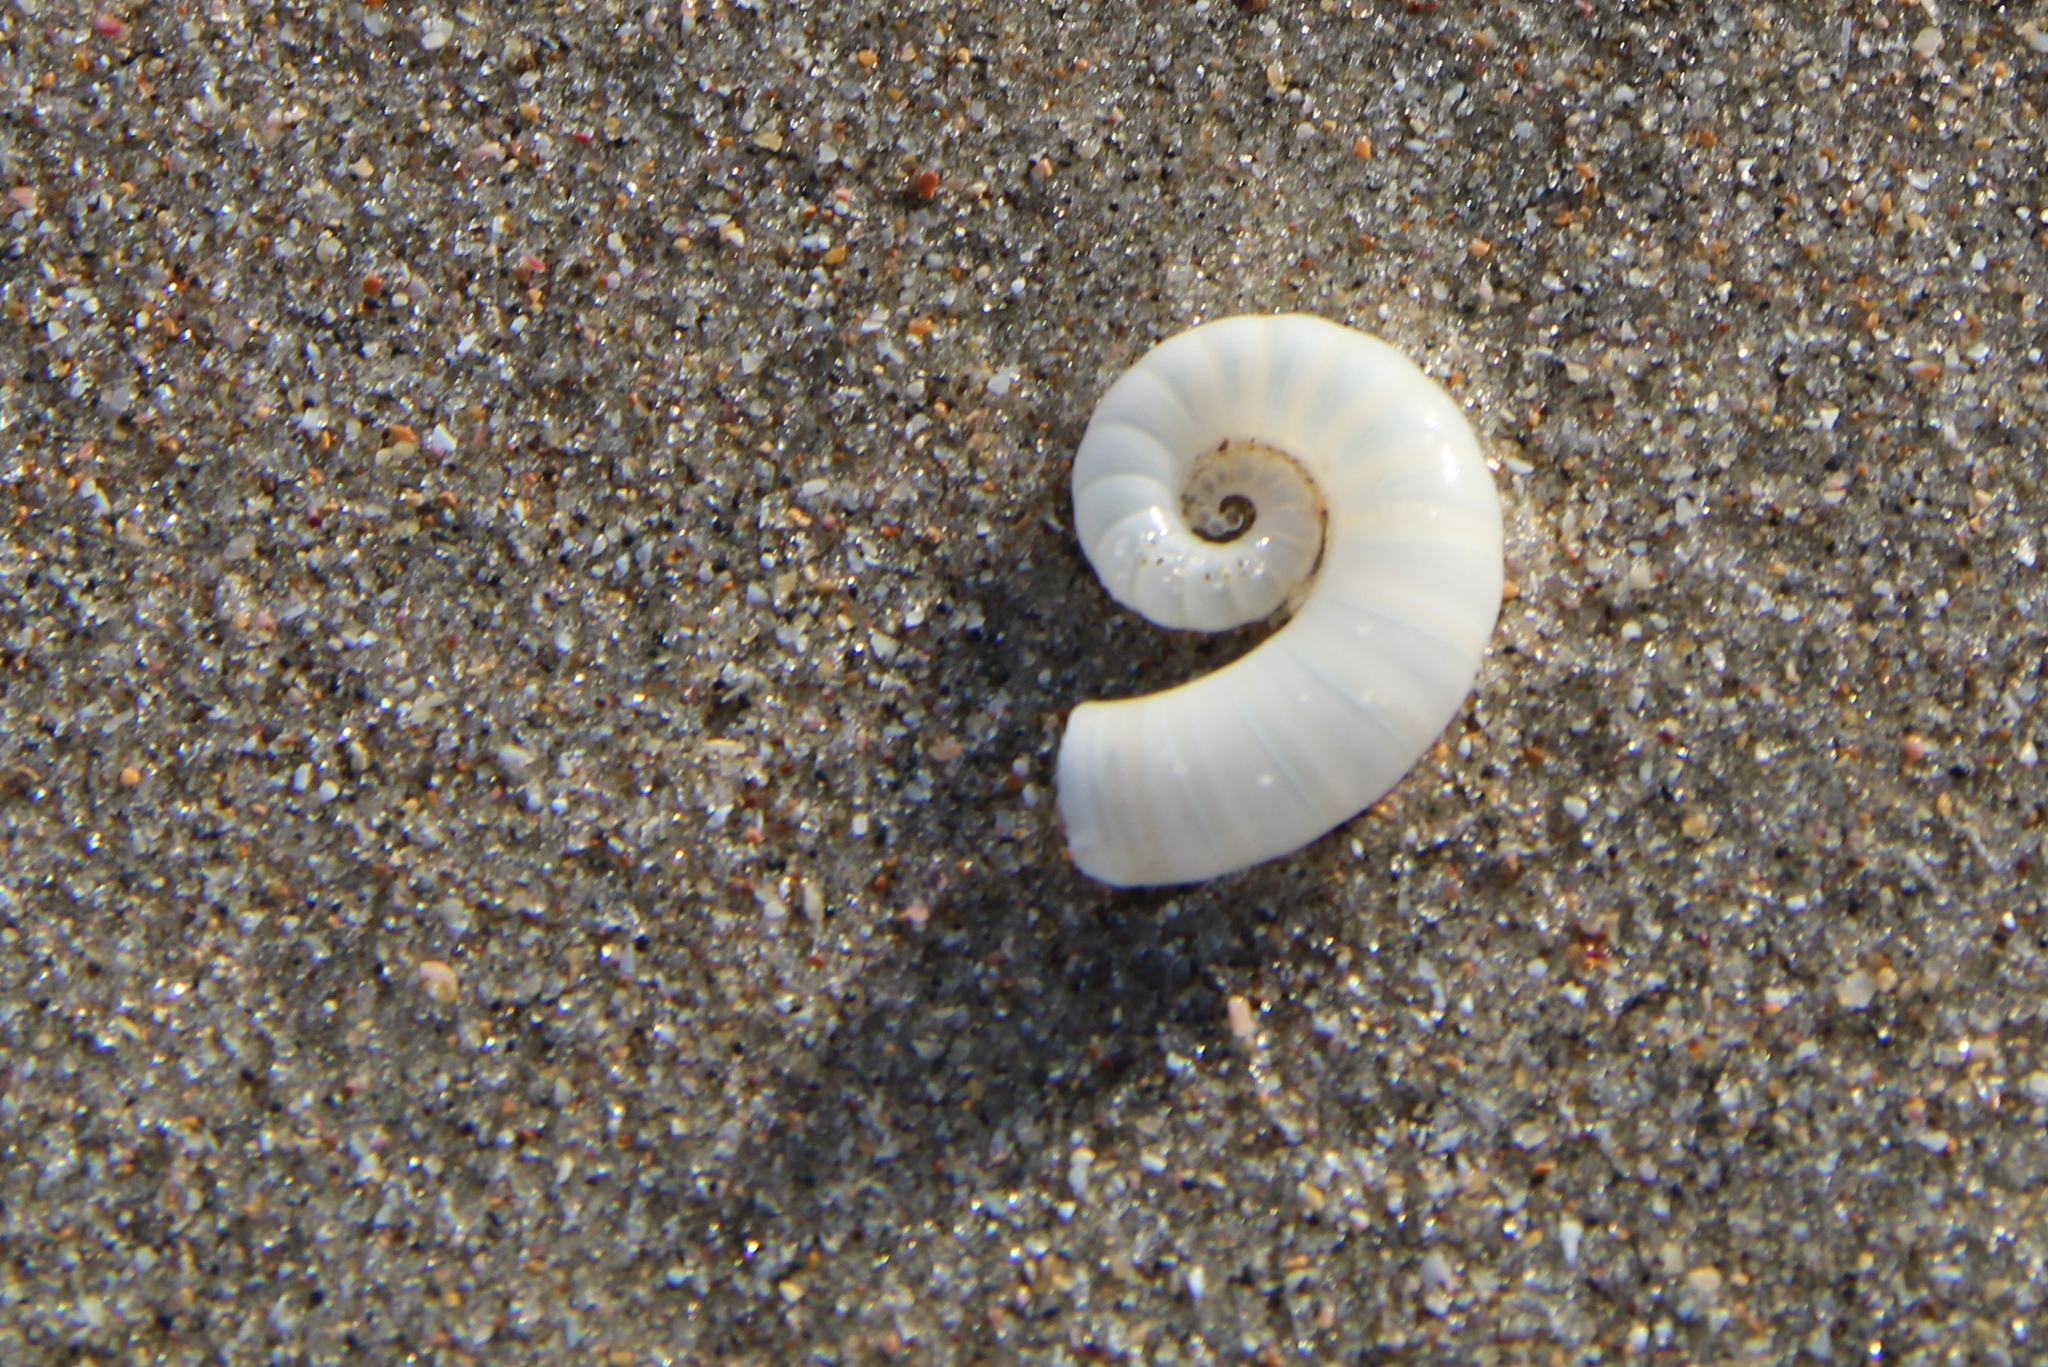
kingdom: Animalia
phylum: Mollusca
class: Cephalopoda
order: Spirulida
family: Spirulidae
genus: Spirula
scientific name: Spirula spirula
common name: Ram's horn squid
